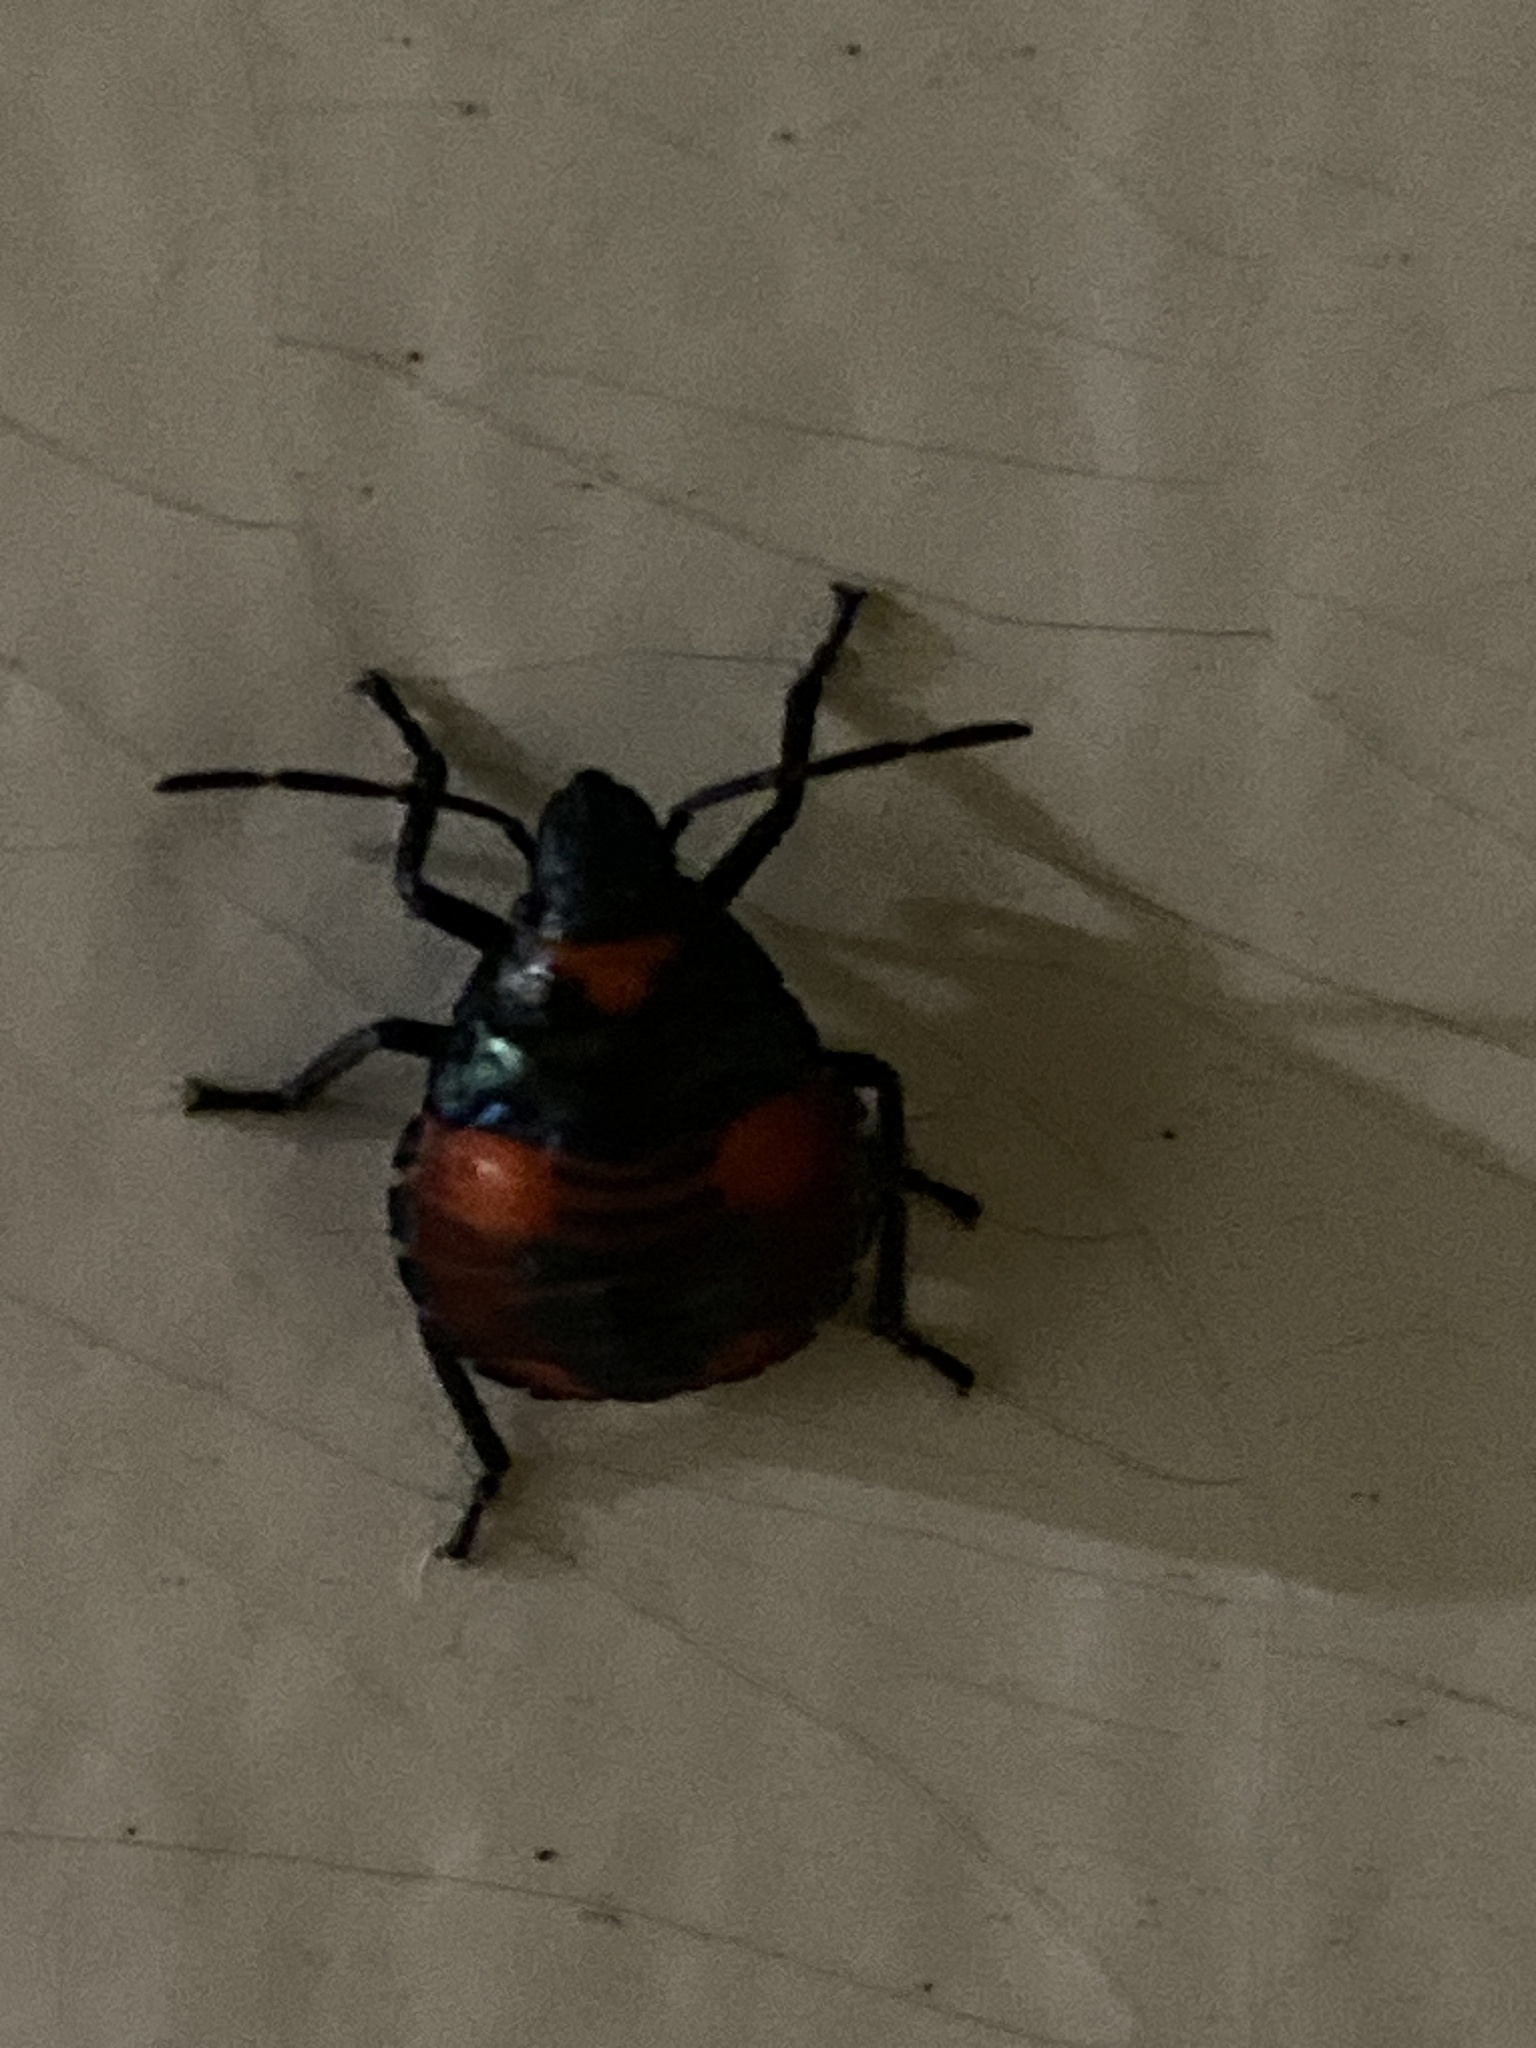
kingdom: Animalia
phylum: Arthropoda
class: Insecta
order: Hemiptera
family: Scutelleridae
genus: Tectocoris
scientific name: Tectocoris diophthalmus
